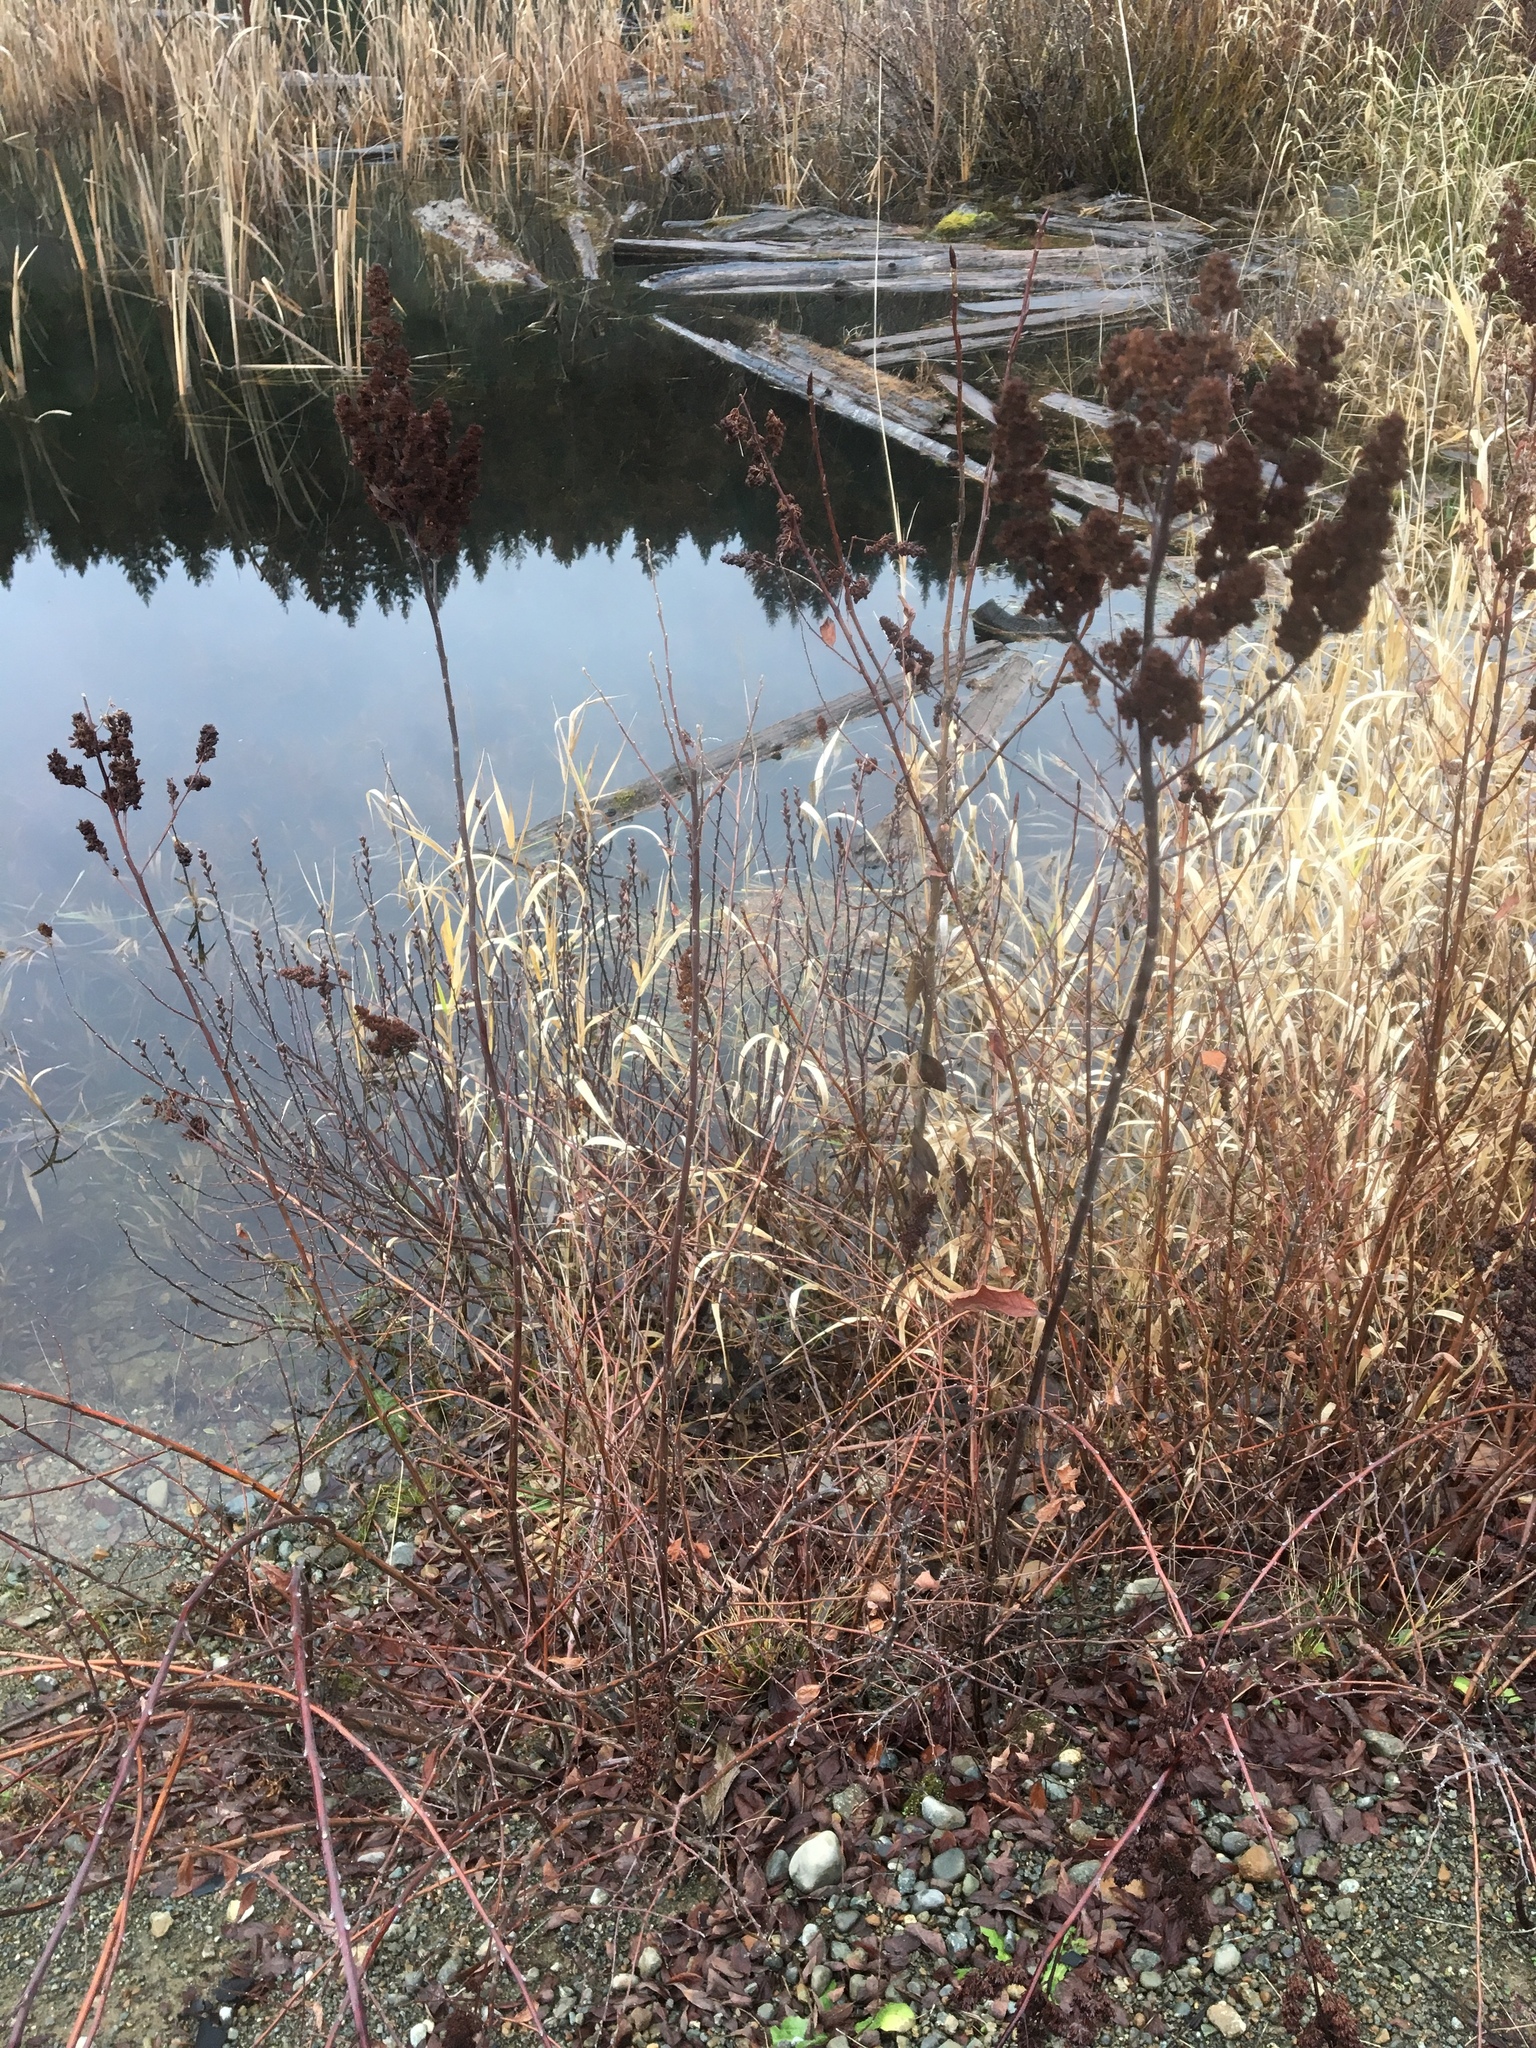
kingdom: Plantae
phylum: Tracheophyta
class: Magnoliopsida
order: Rosales
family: Rosaceae
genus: Spiraea
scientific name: Spiraea douglasii
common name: Steeplebush
